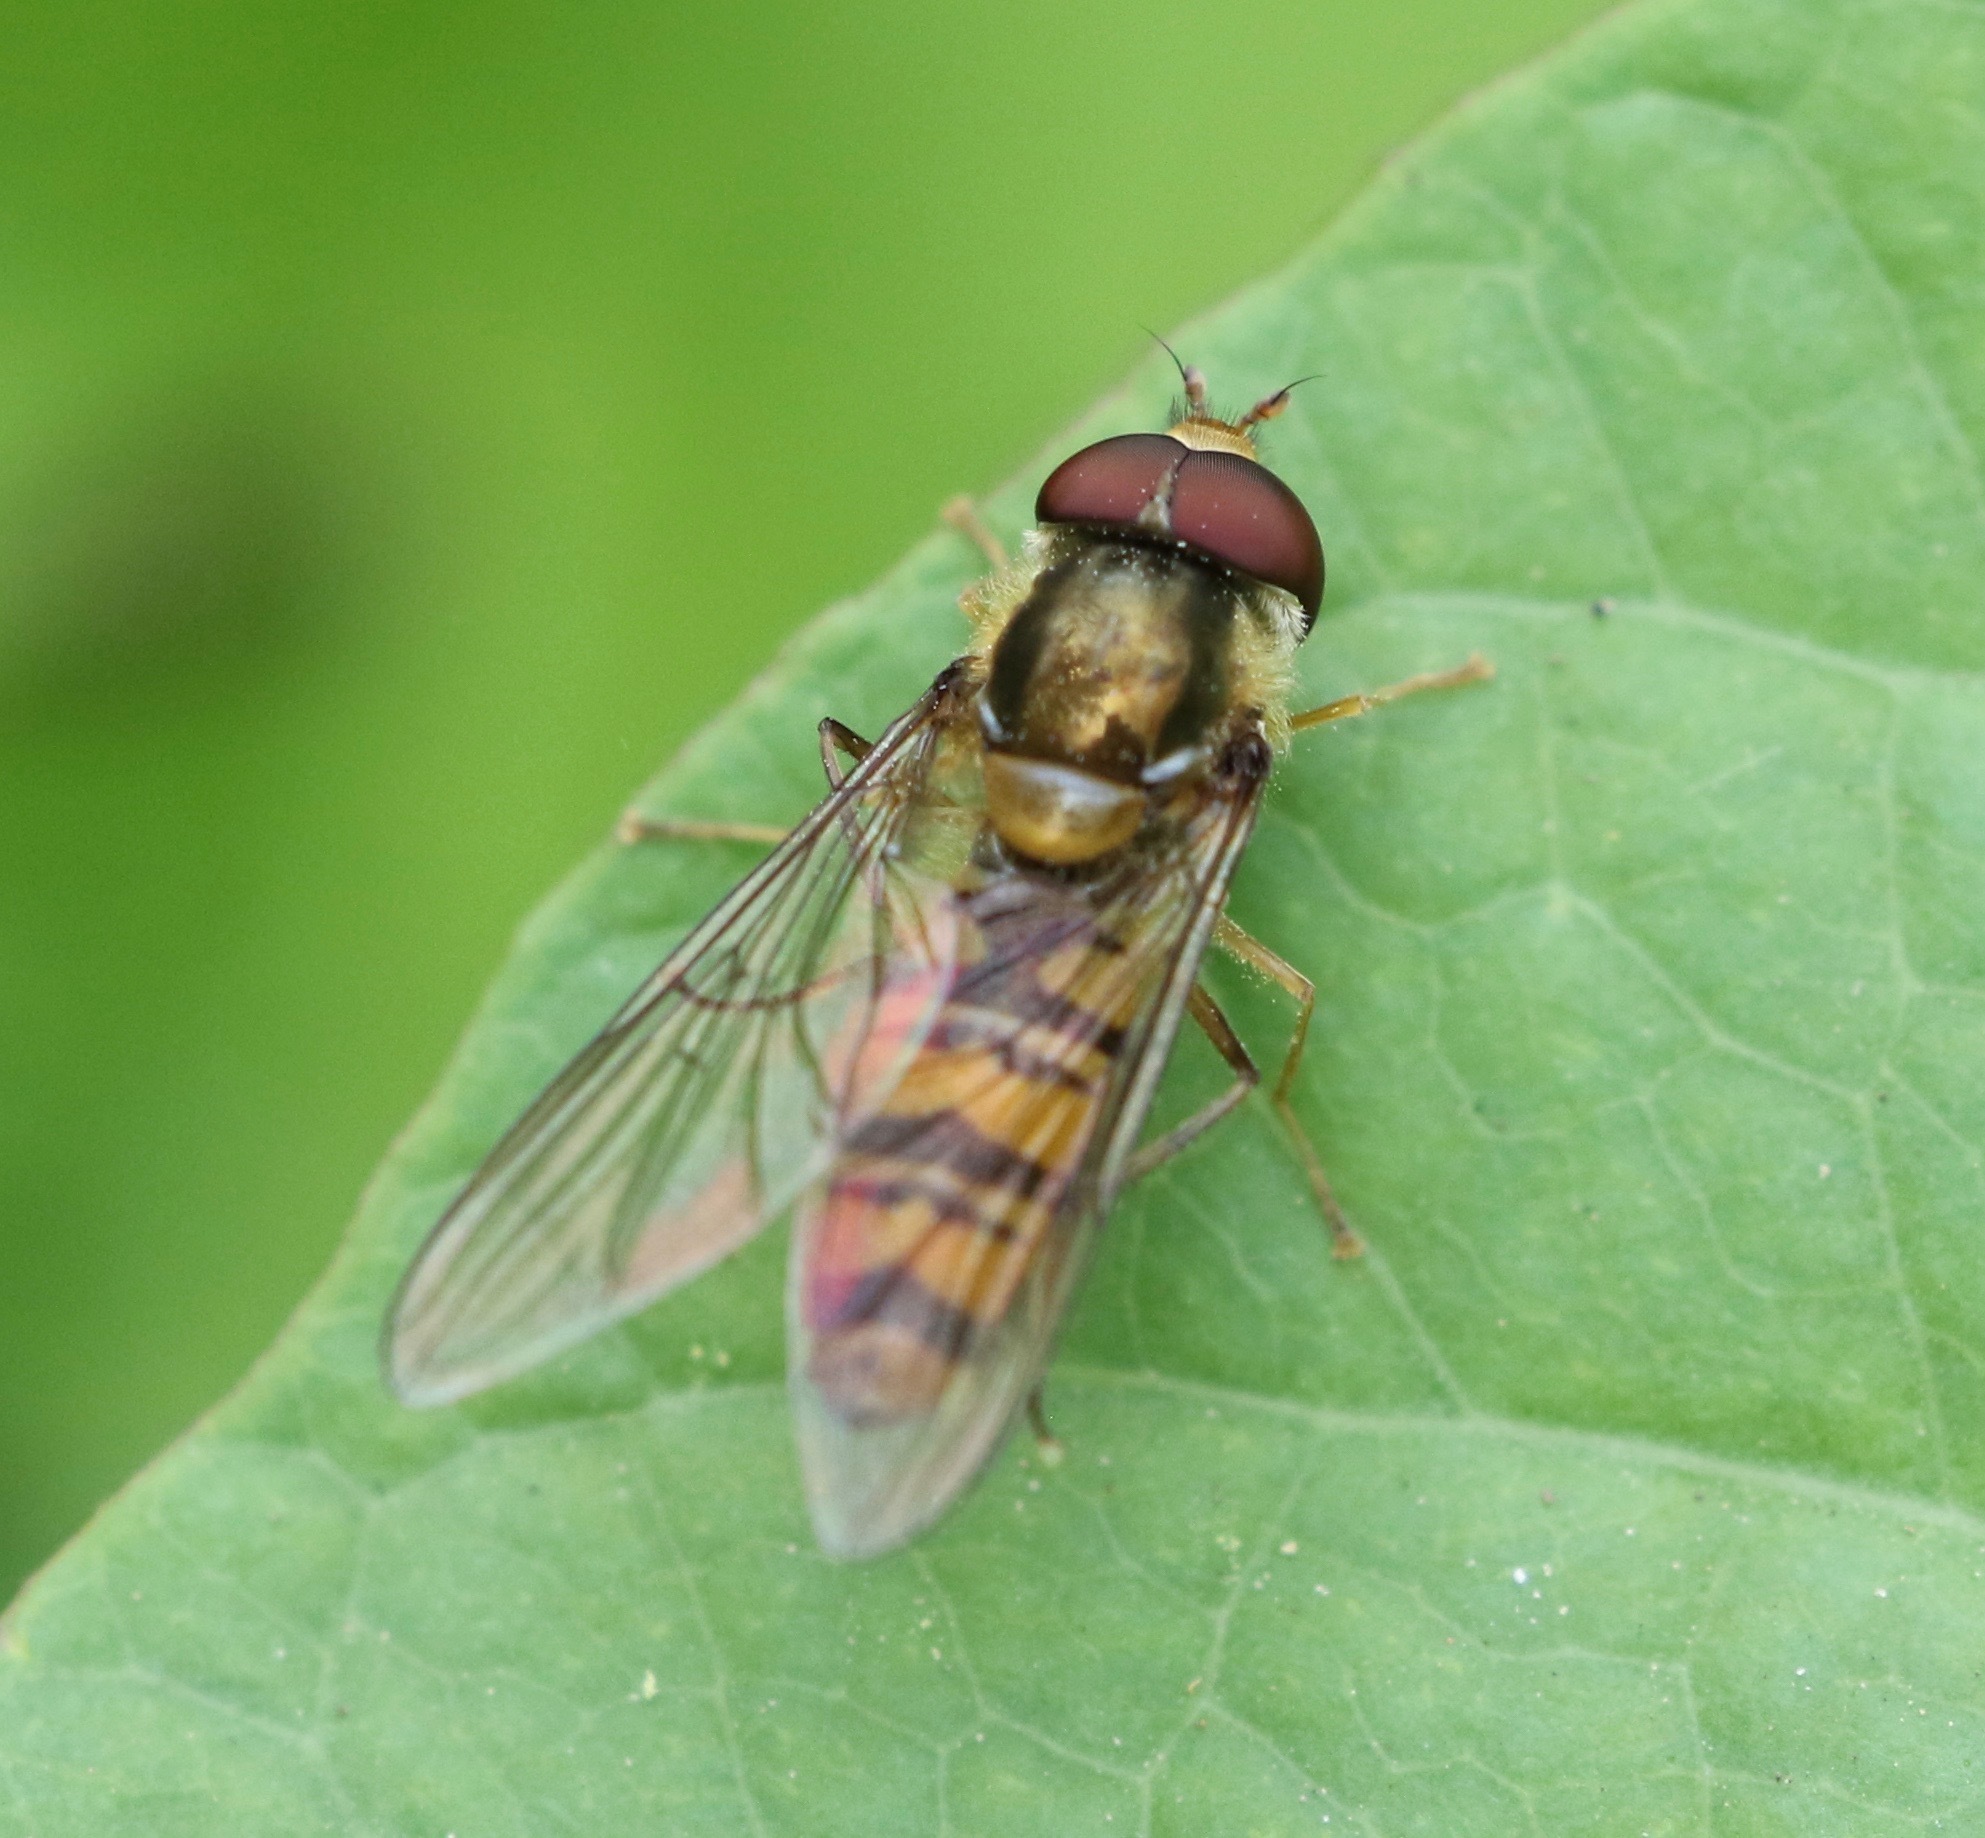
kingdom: Animalia
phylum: Arthropoda
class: Insecta
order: Diptera
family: Syrphidae
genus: Episyrphus
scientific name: Episyrphus balteatus
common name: Marmalade hoverfly
